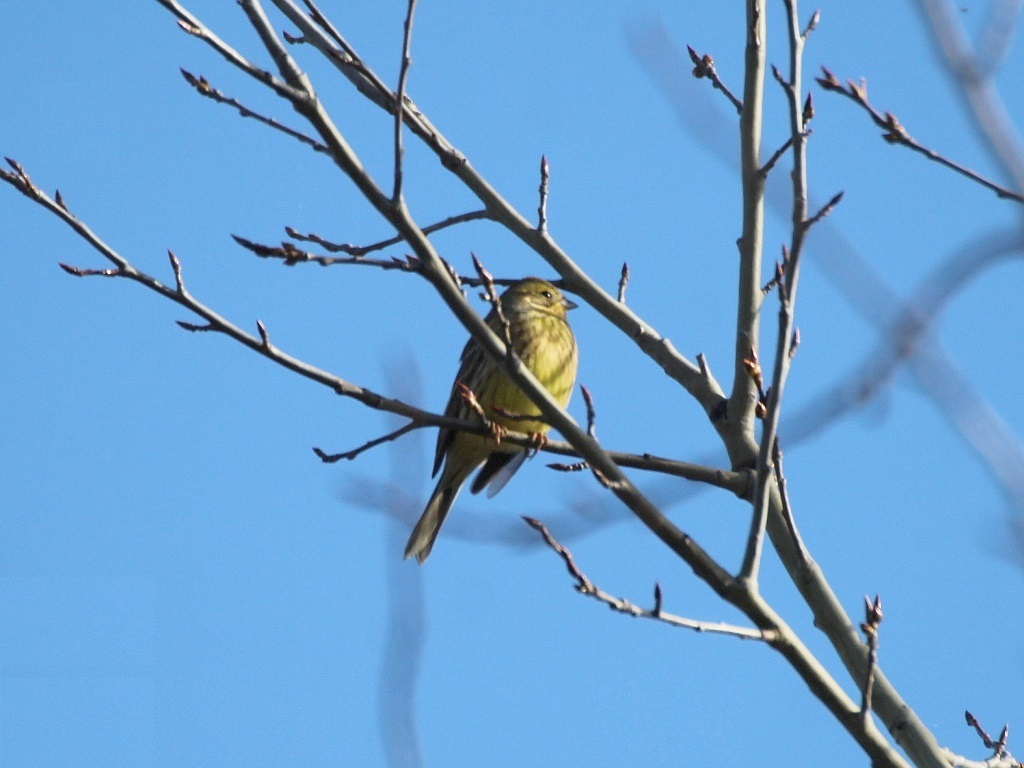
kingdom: Animalia
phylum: Chordata
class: Aves
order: Passeriformes
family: Emberizidae
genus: Emberiza
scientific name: Emberiza citrinella
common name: Yellowhammer
